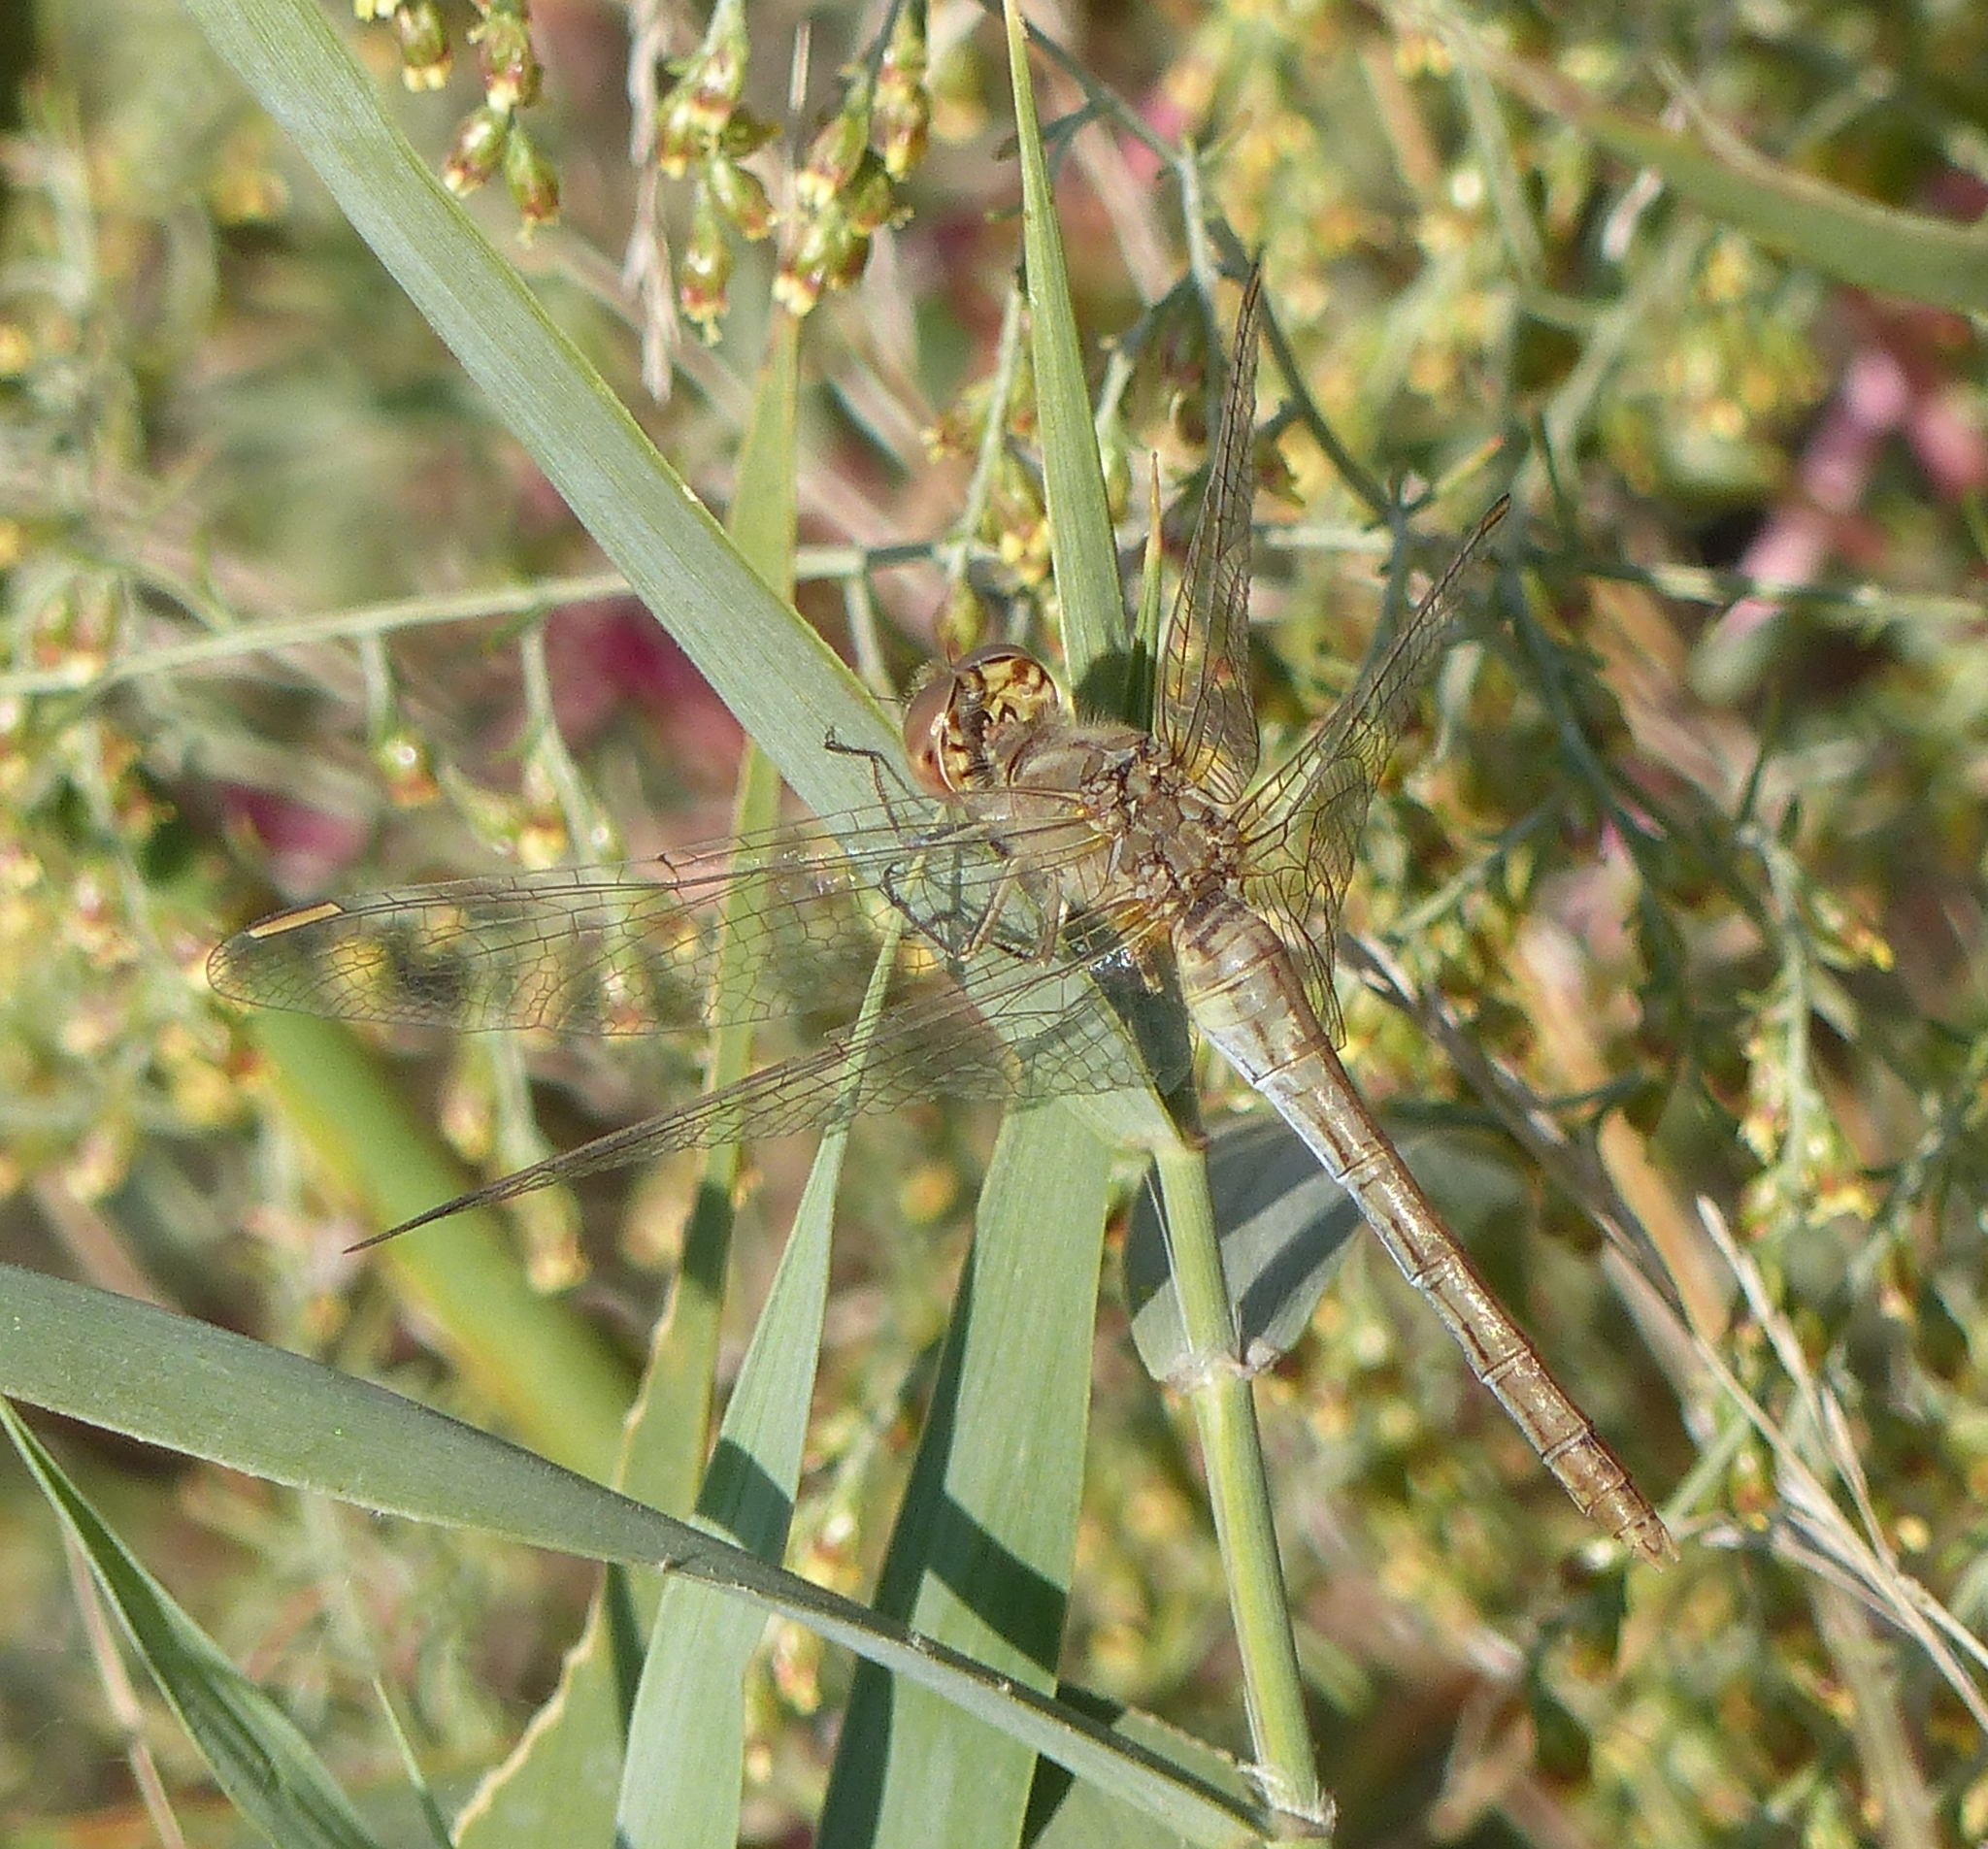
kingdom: Animalia
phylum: Arthropoda
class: Insecta
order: Odonata
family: Libellulidae
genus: Sympetrum
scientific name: Sympetrum meridionale
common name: Southern darter
